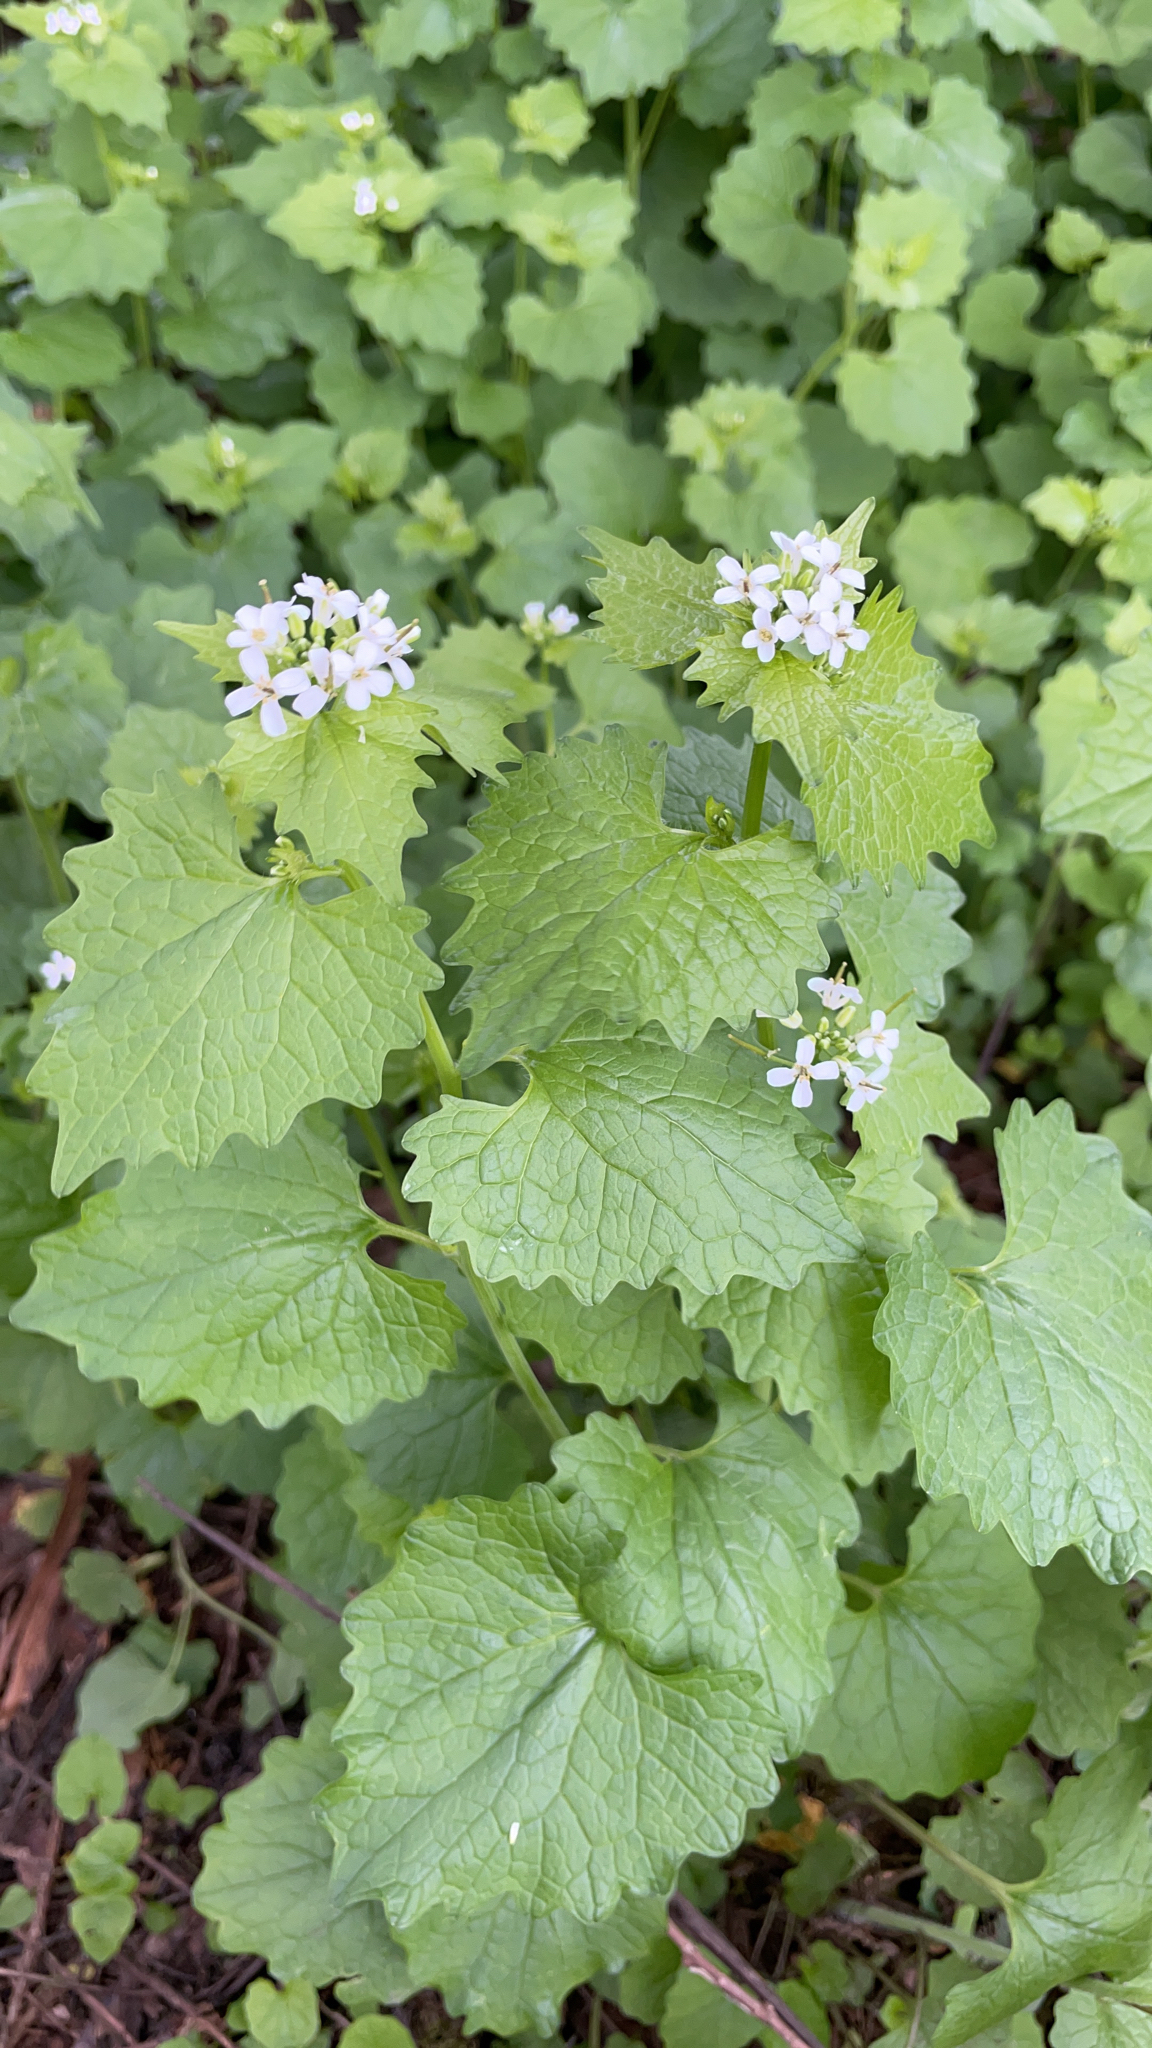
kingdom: Plantae
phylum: Tracheophyta
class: Magnoliopsida
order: Brassicales
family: Brassicaceae
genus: Alliaria
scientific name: Alliaria petiolata
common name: Garlic mustard
